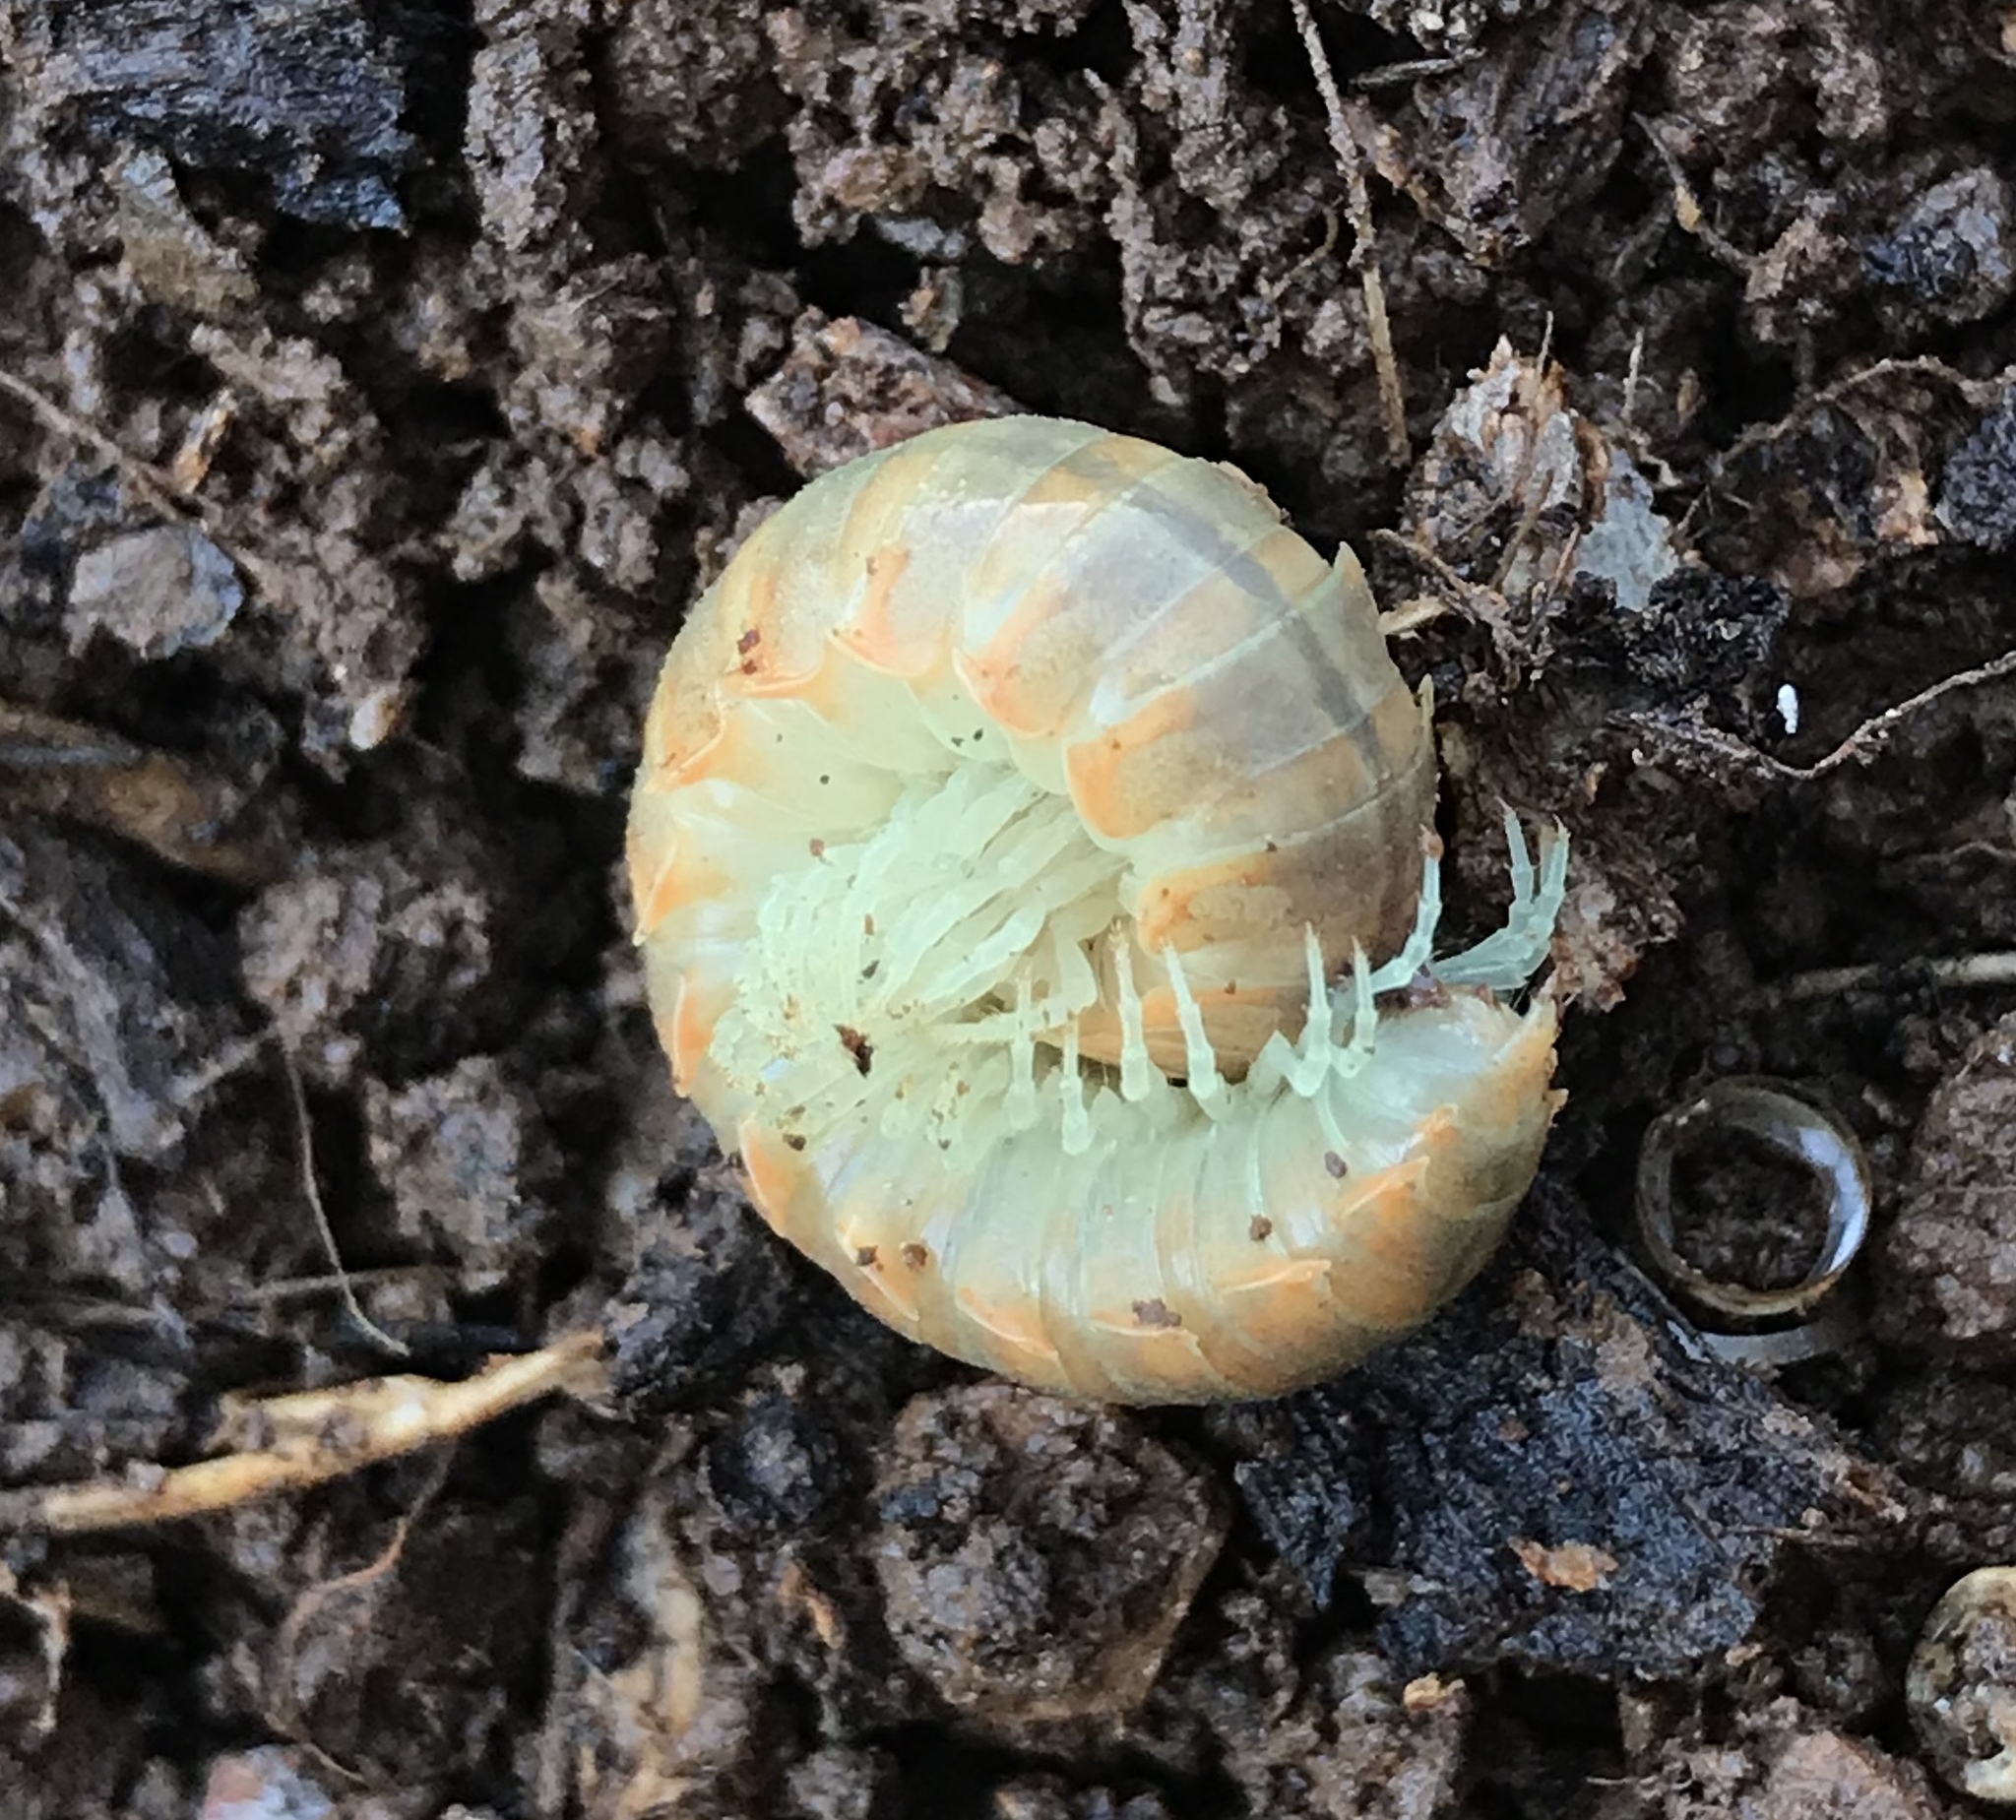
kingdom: Animalia
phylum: Arthropoda
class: Diplopoda
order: Polydesmida
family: Xystodesmidae
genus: Xystocheir
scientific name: Xystocheir dissecta
